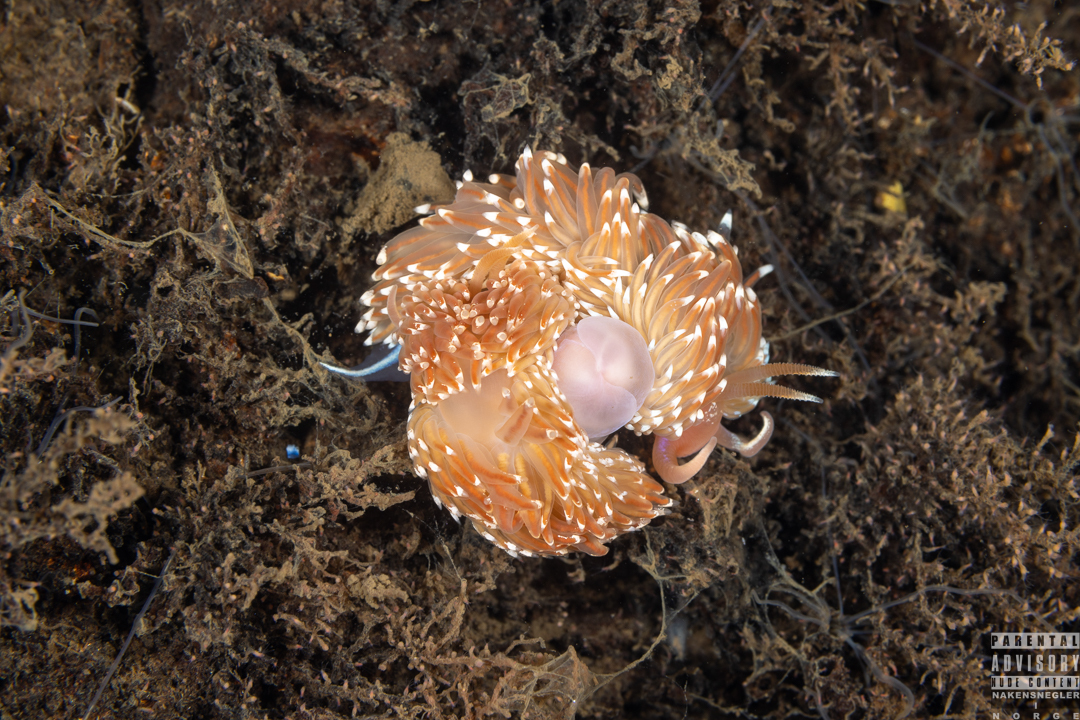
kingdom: Animalia
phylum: Mollusca
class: Gastropoda
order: Nudibranchia
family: Facelinidae
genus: Facelina
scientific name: Facelina bostoniensis
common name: Boston facelina
